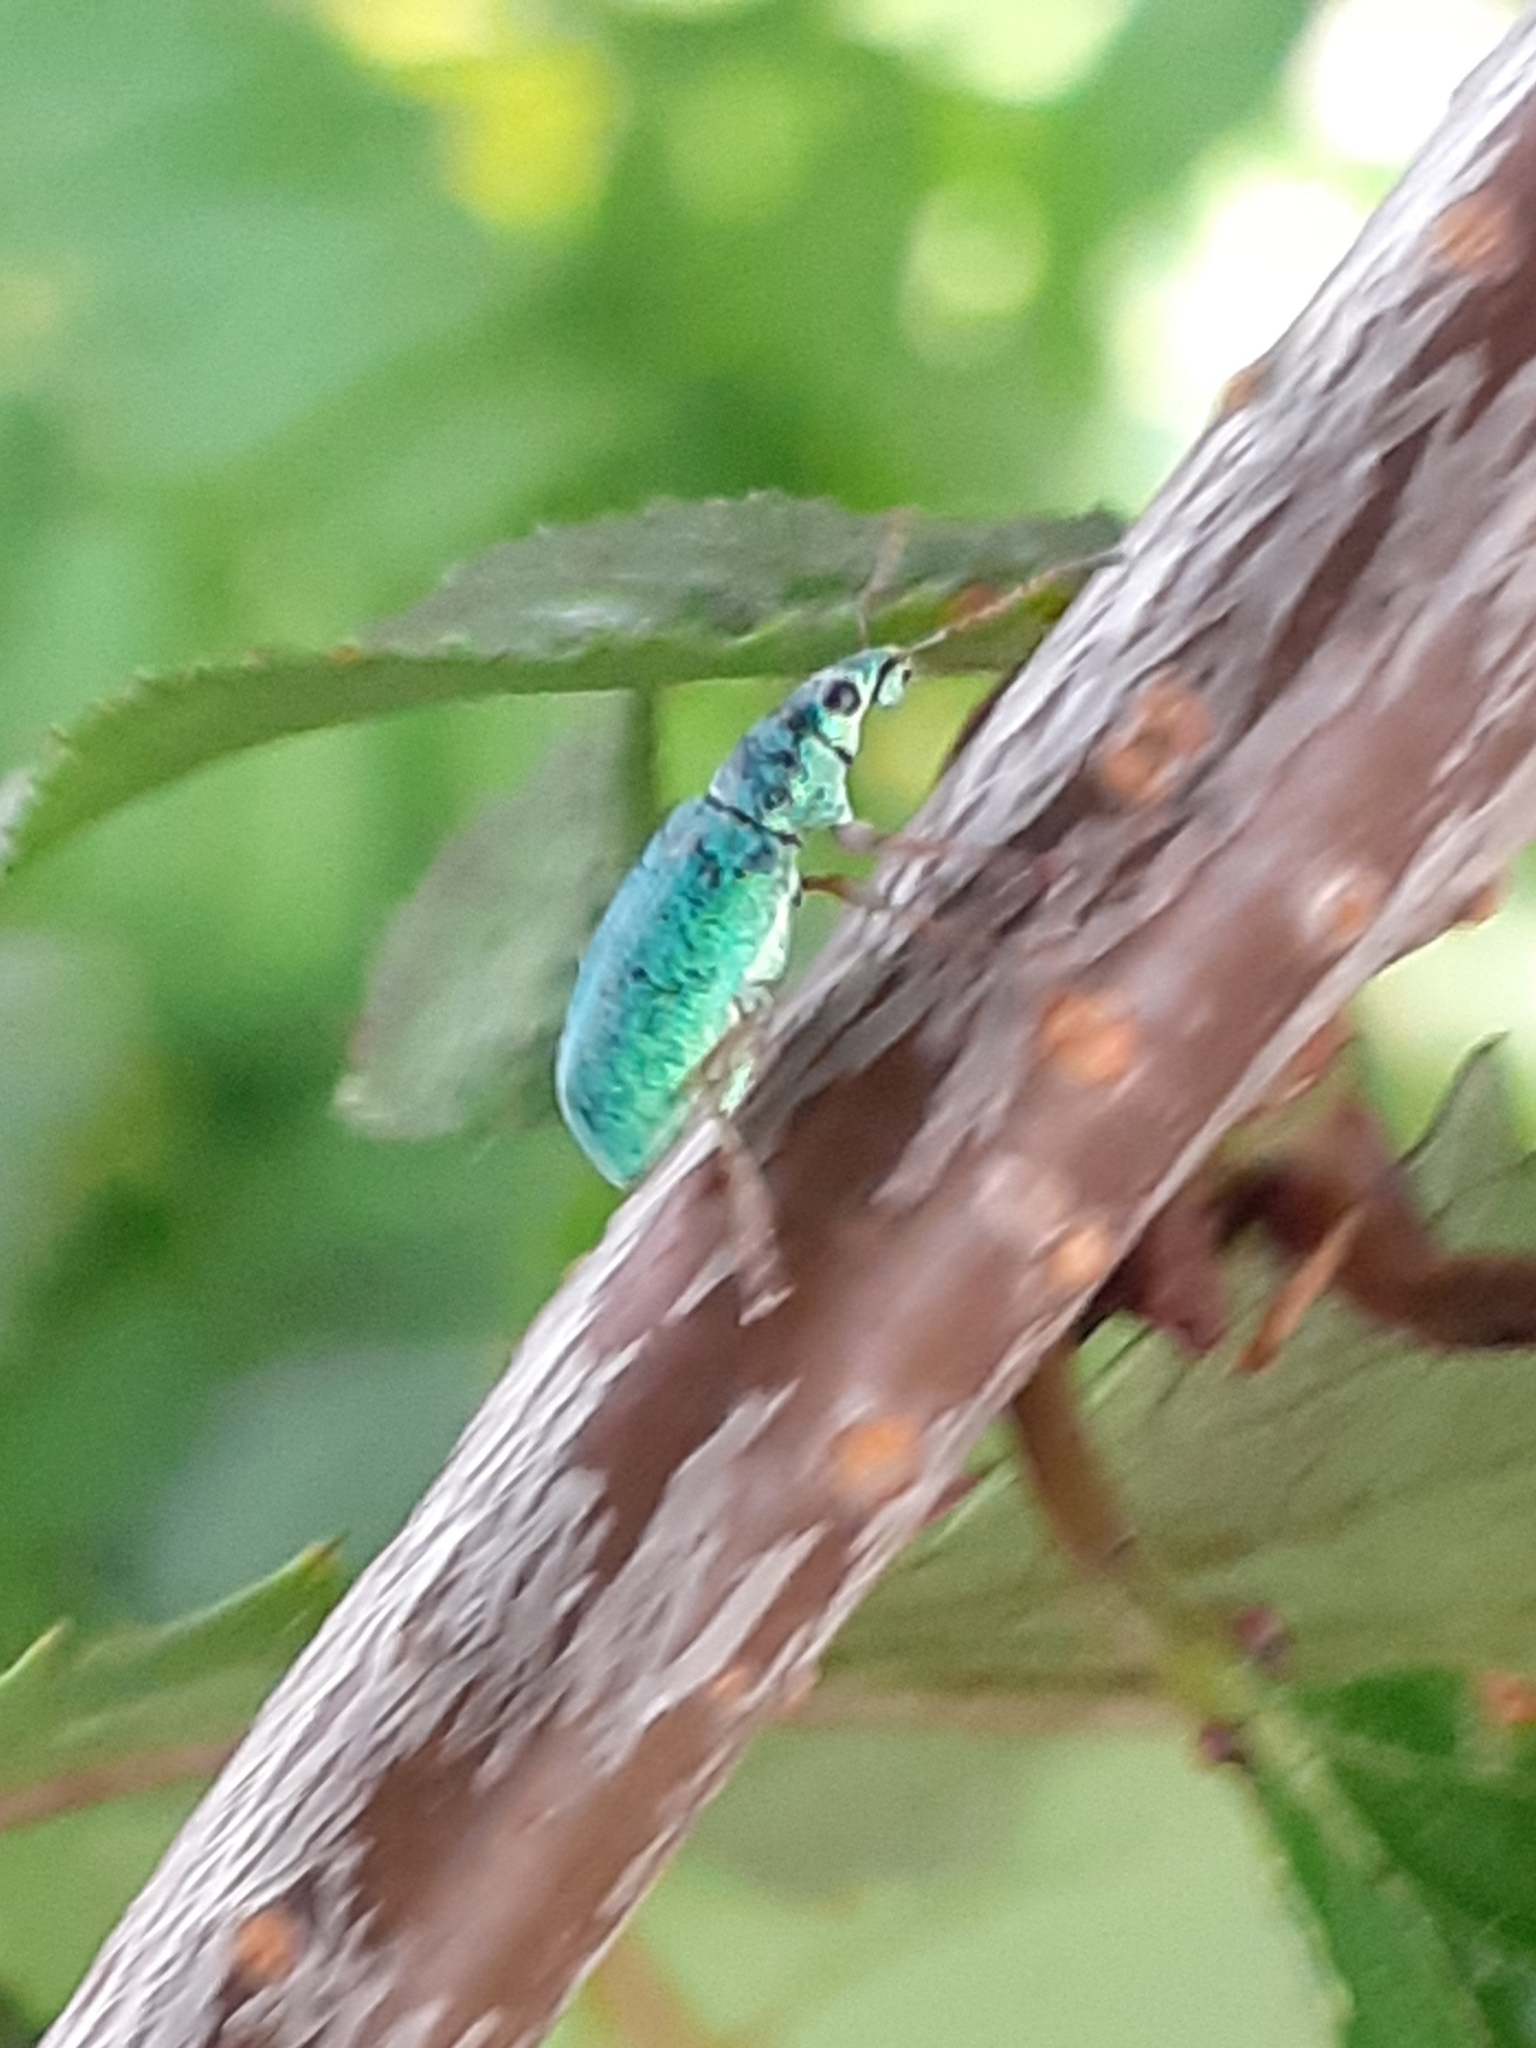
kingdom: Animalia
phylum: Arthropoda
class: Insecta
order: Coleoptera
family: Curculionidae
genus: Polydrusus
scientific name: Polydrusus formosus
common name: Weevil
